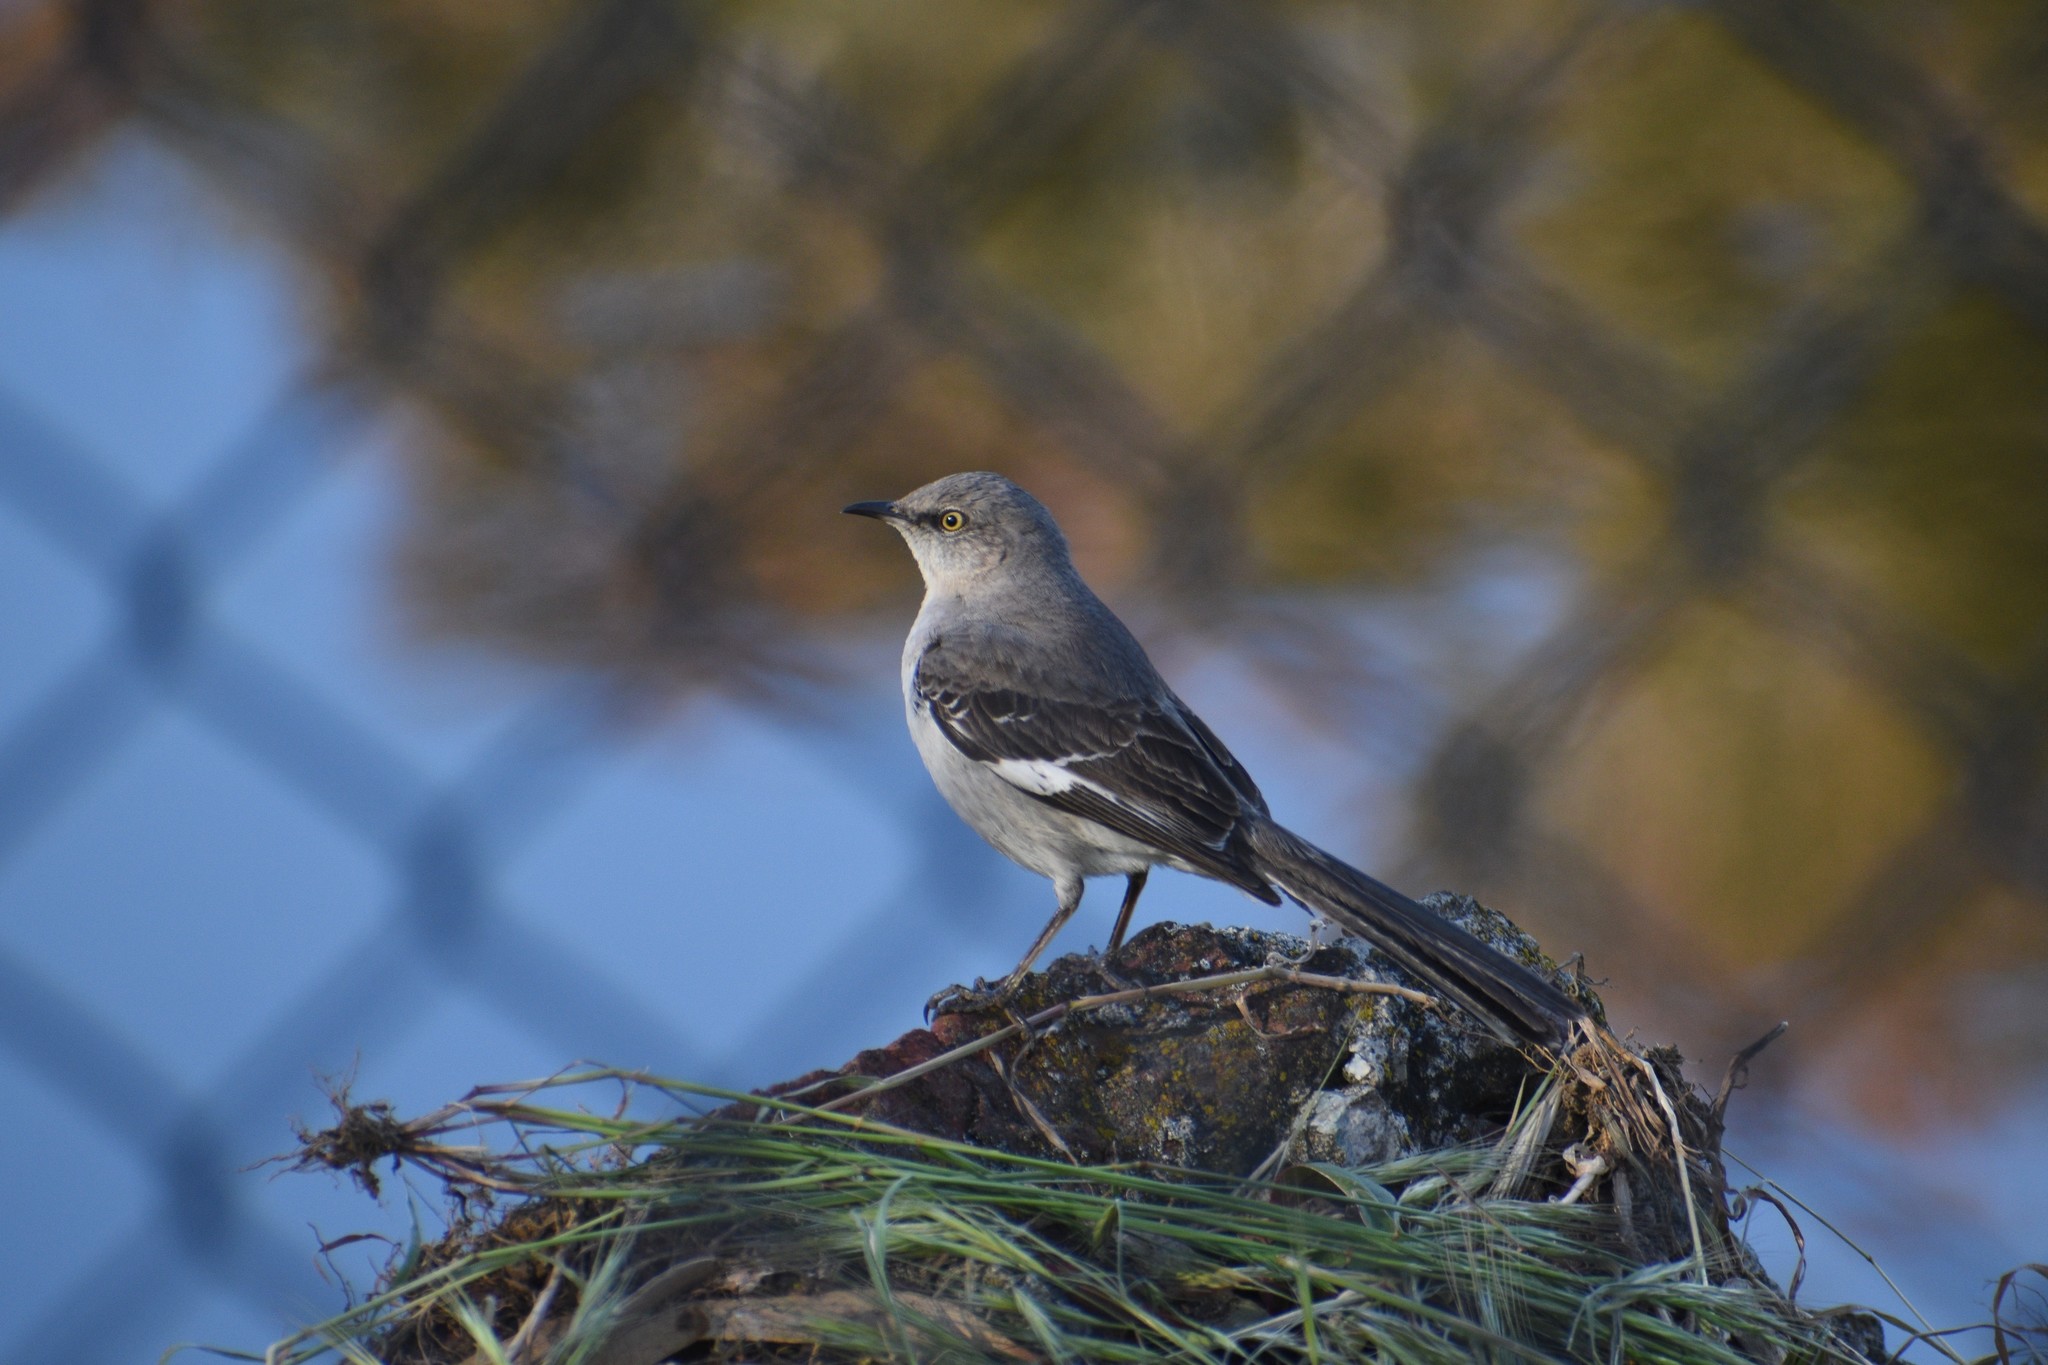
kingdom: Animalia
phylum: Chordata
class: Aves
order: Passeriformes
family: Mimidae
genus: Mimus
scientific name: Mimus polyglottos
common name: Northern mockingbird
